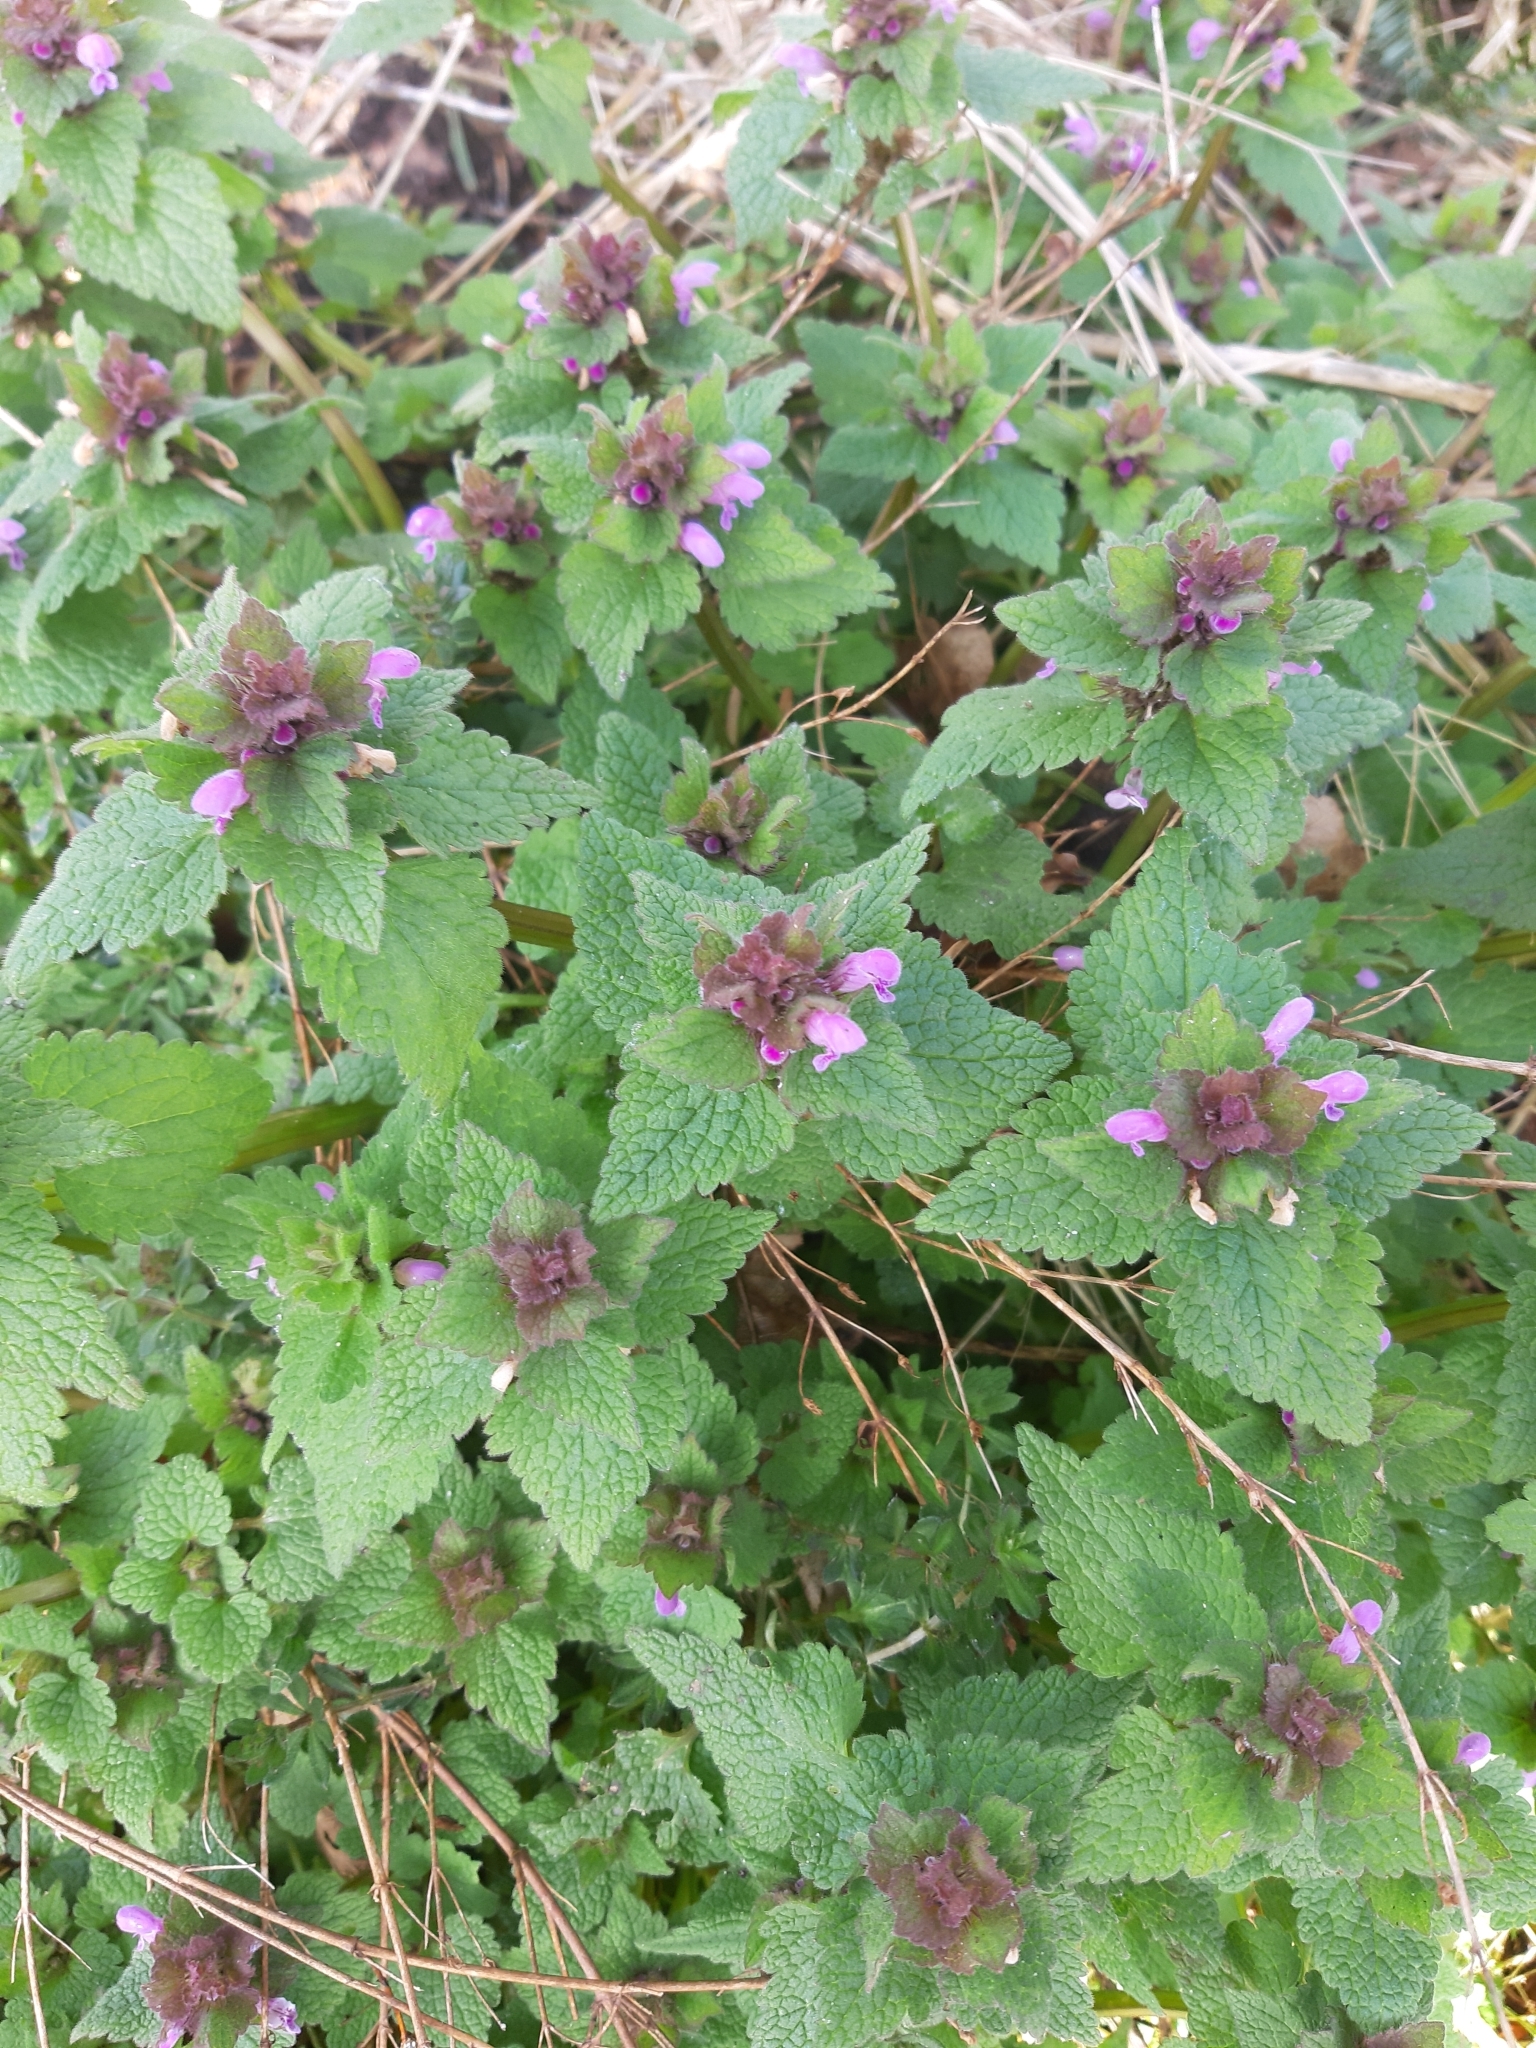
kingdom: Plantae
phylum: Tracheophyta
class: Magnoliopsida
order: Lamiales
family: Lamiaceae
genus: Lamium
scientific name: Lamium purpureum
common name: Red dead-nettle
